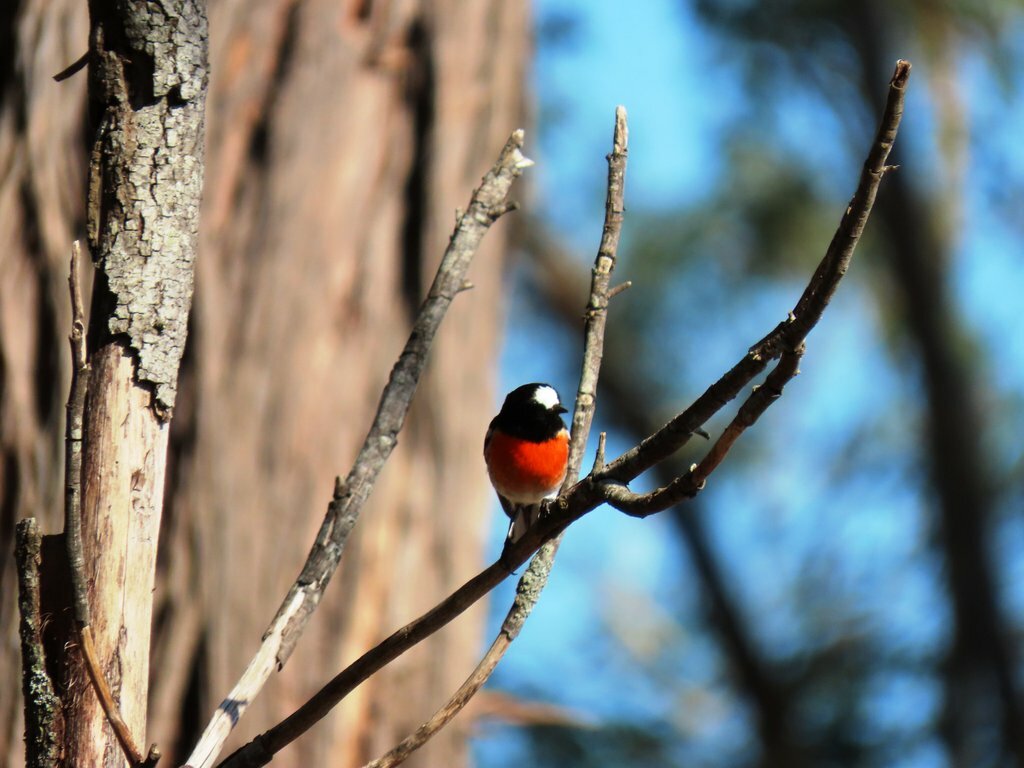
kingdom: Animalia
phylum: Chordata
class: Aves
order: Passeriformes
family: Petroicidae
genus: Petroica
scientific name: Petroica boodang
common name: Scarlet robin
